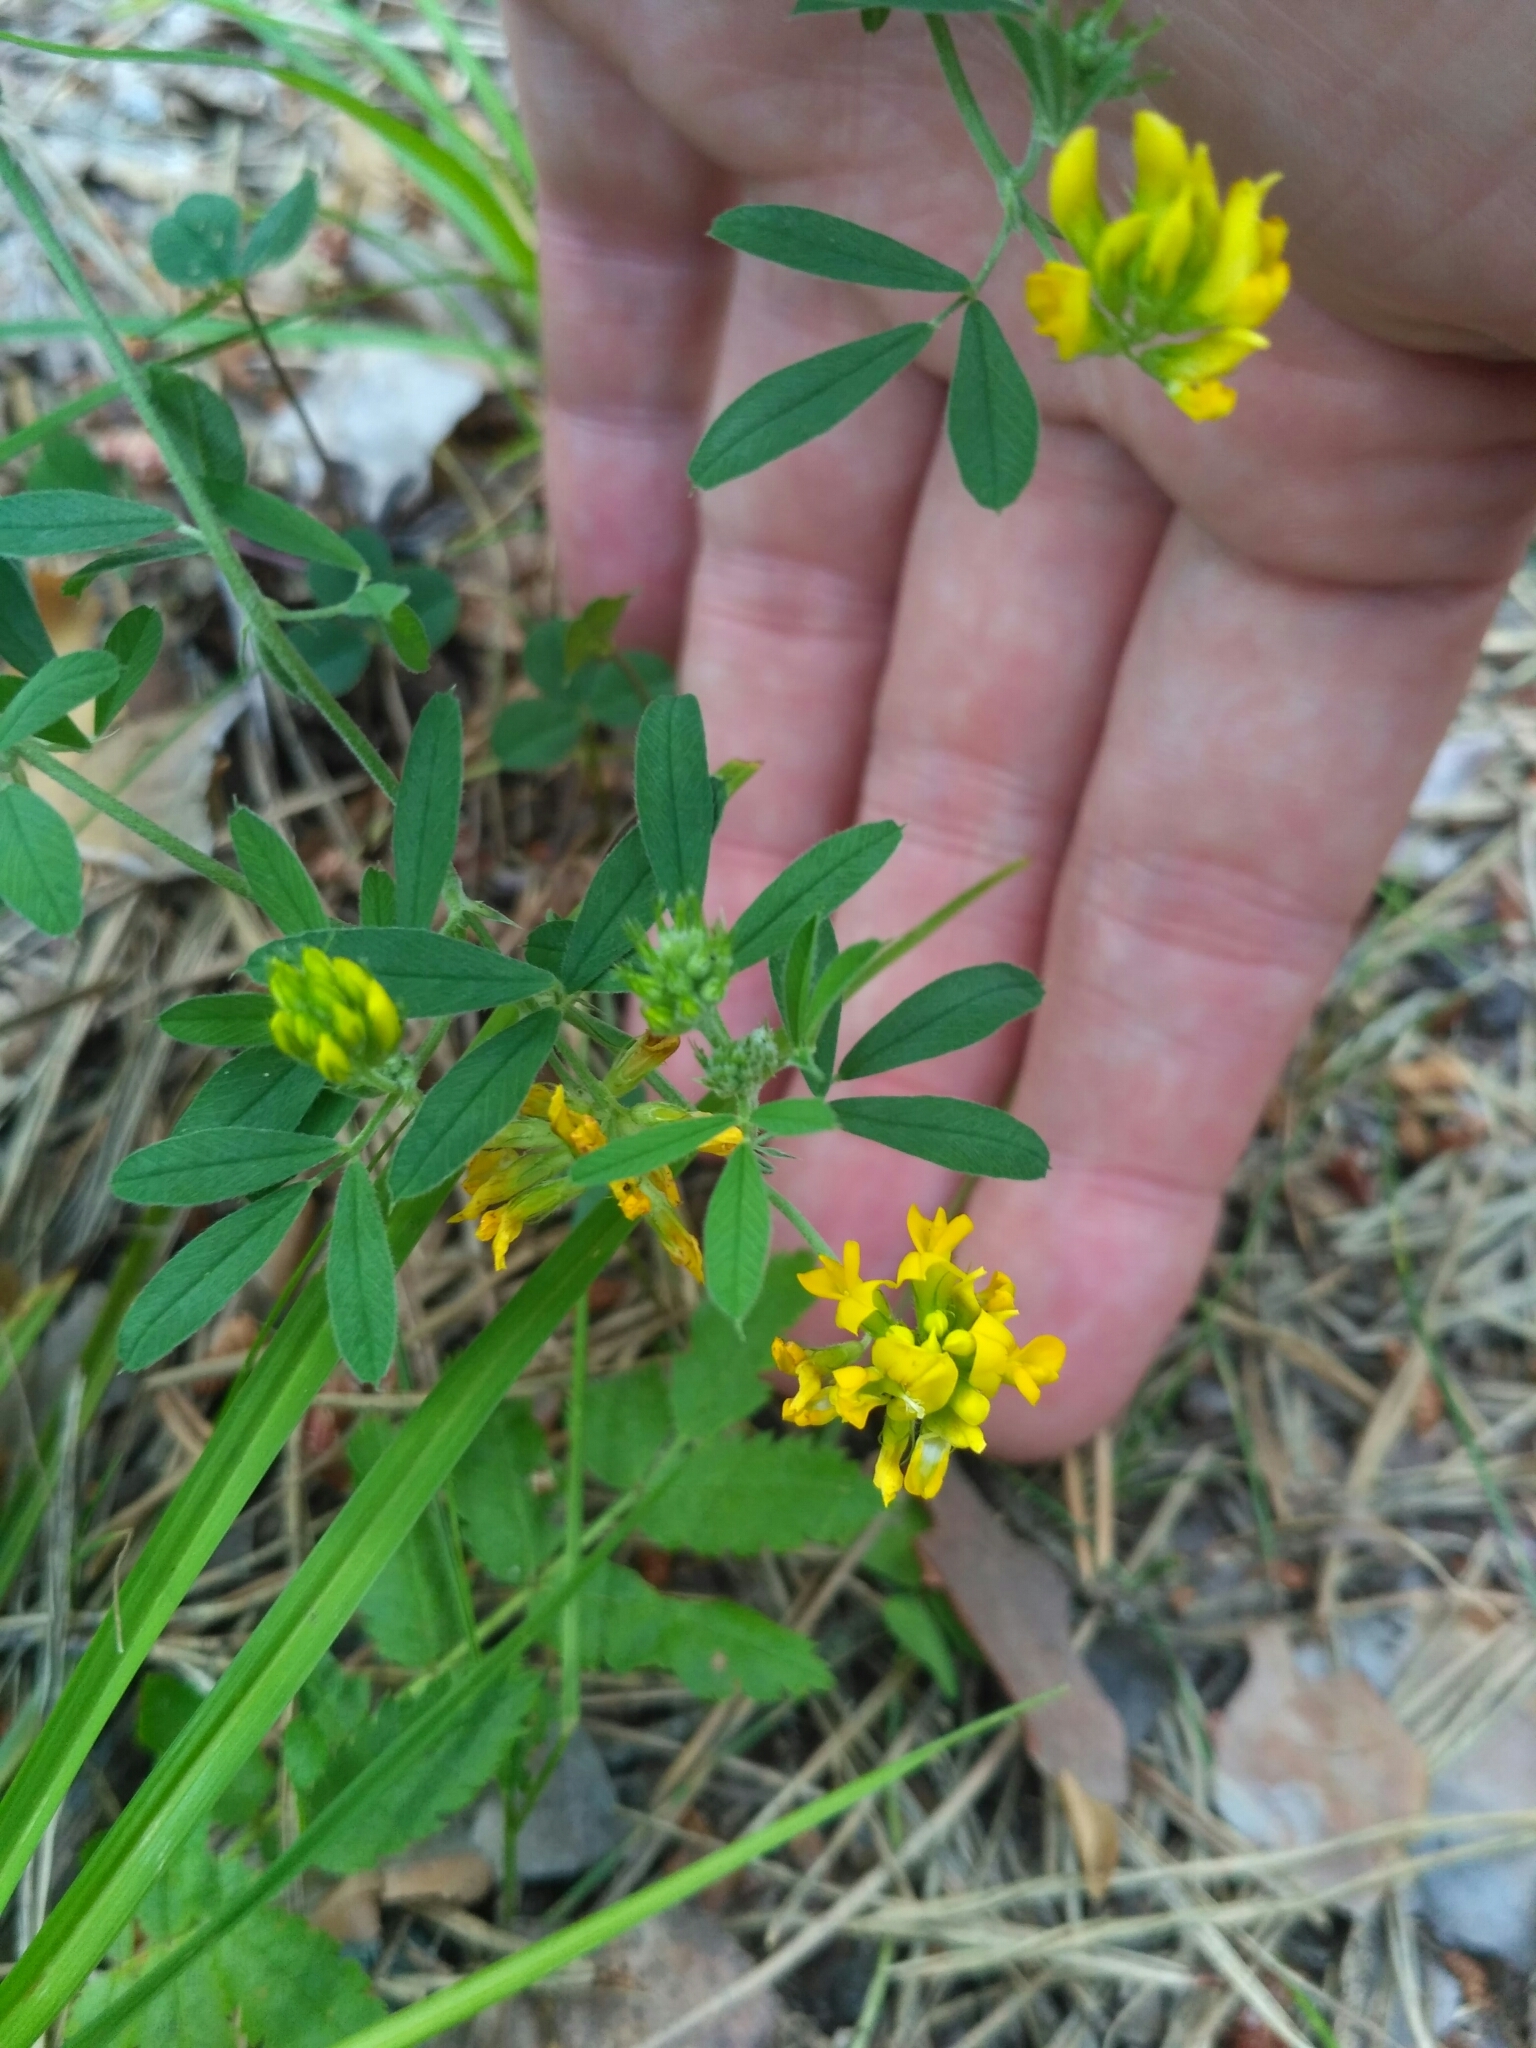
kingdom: Plantae
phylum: Tracheophyta
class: Magnoliopsida
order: Fabales
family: Fabaceae
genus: Medicago
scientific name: Medicago falcata
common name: Sickle medick
